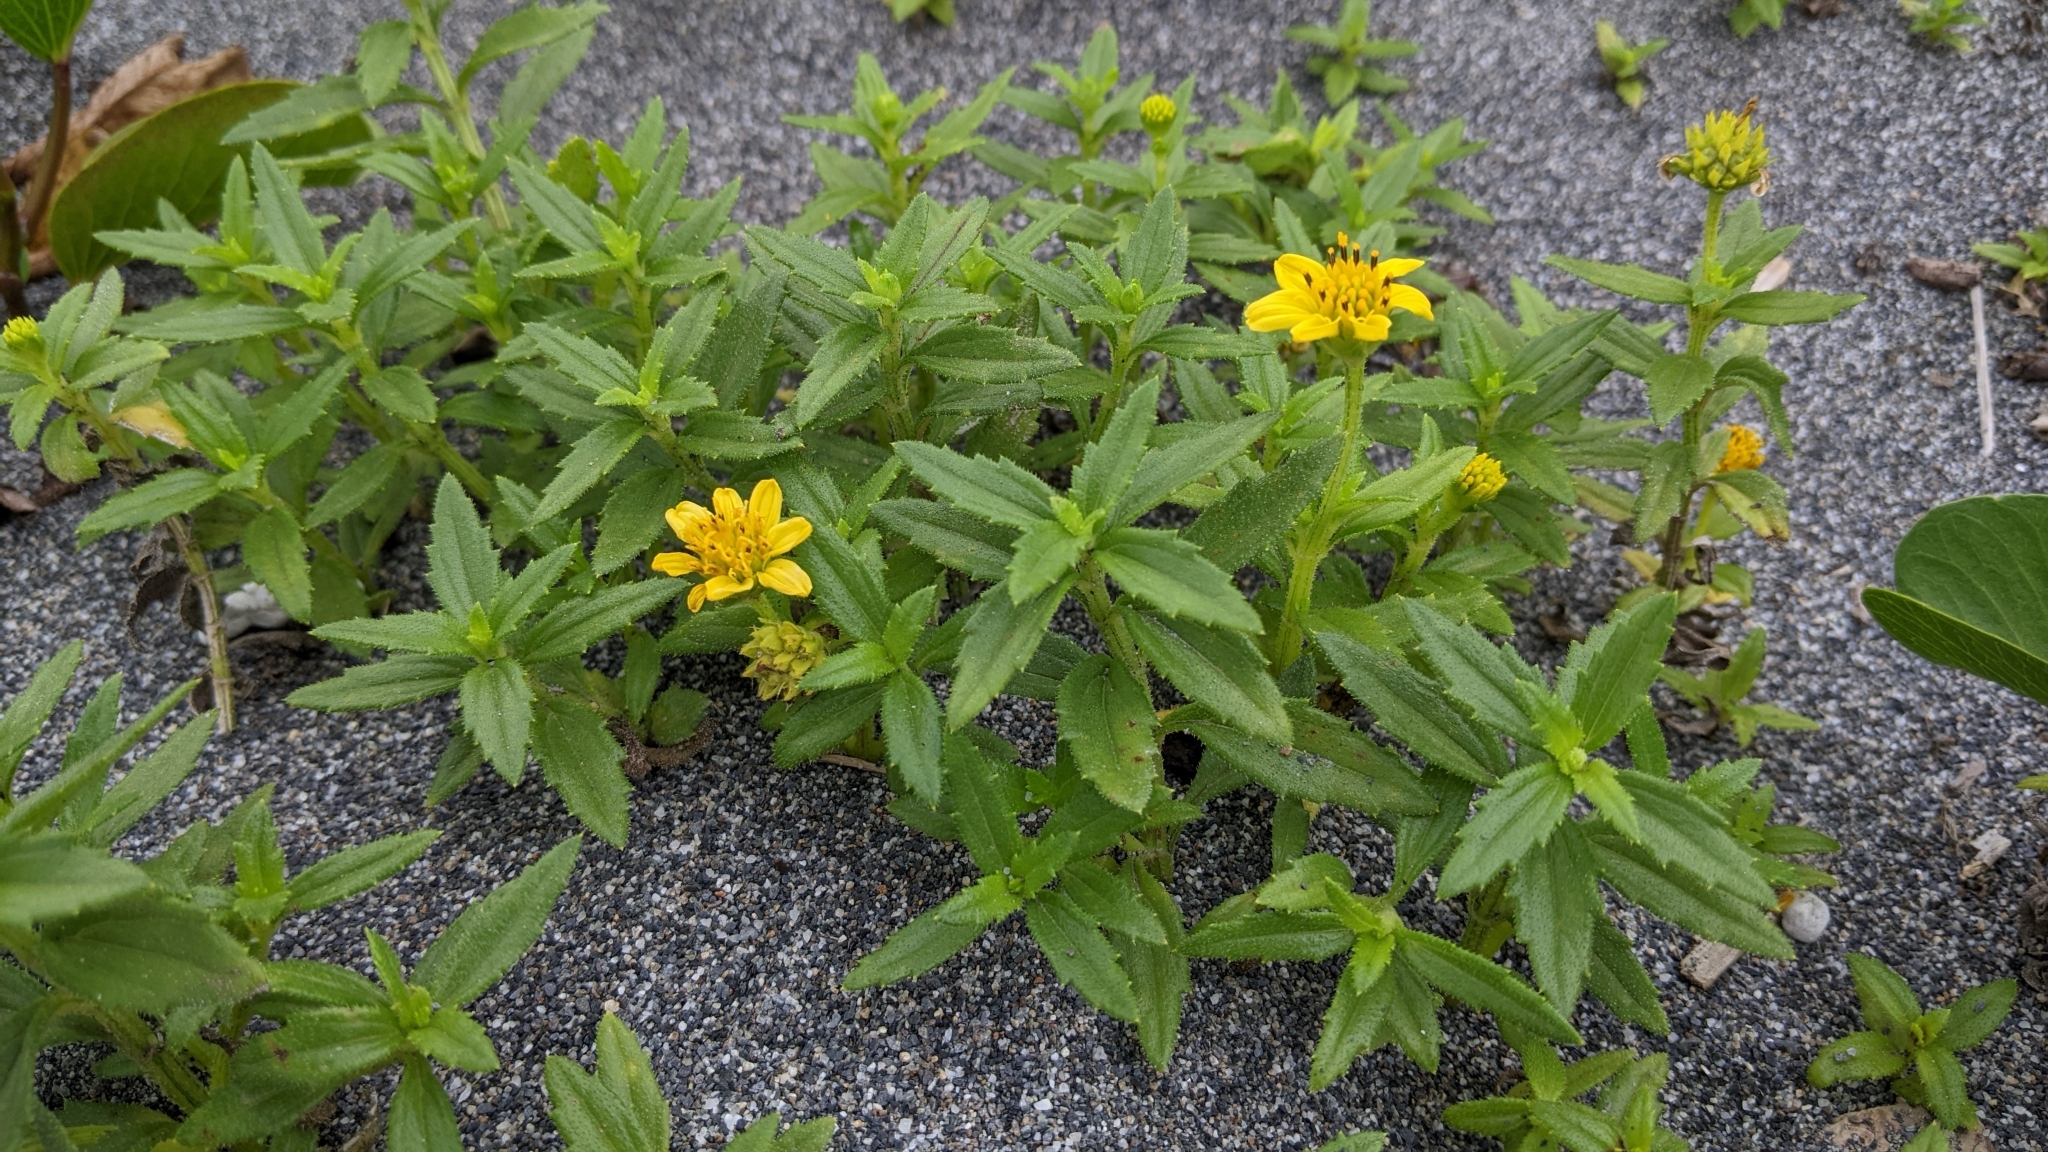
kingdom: Plantae
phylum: Tracheophyta
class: Magnoliopsida
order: Asterales
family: Asteraceae
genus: Melanthera
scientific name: Melanthera prostrata
